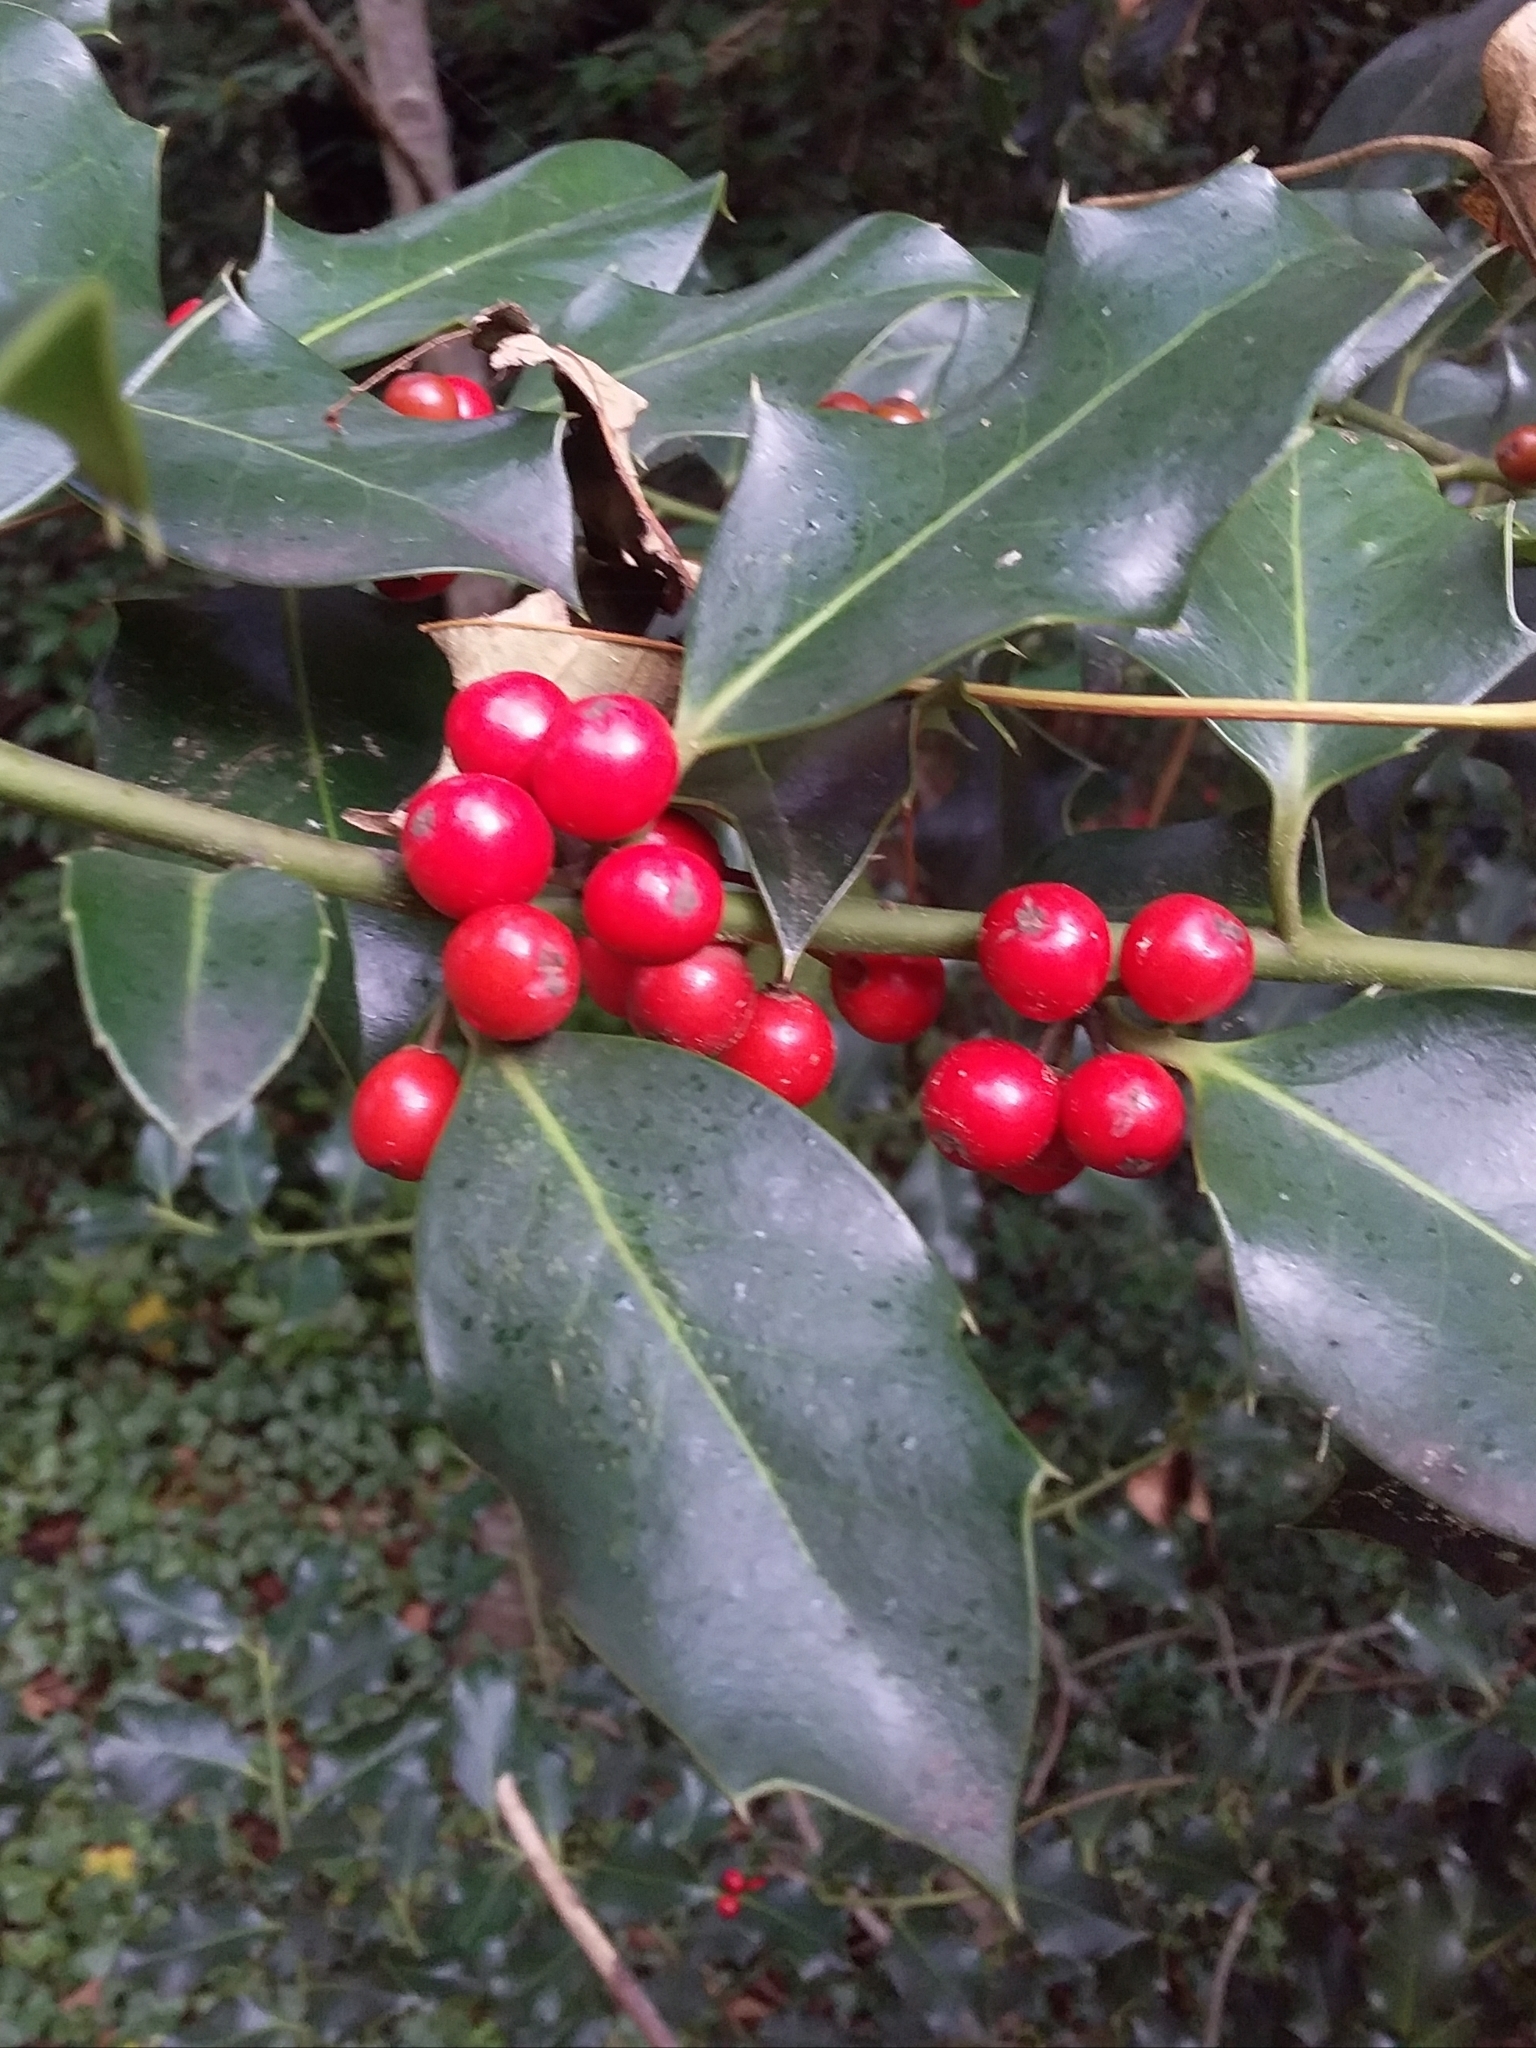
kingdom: Plantae
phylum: Tracheophyta
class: Magnoliopsida
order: Aquifoliales
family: Aquifoliaceae
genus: Ilex
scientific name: Ilex aquifolium
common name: English holly
